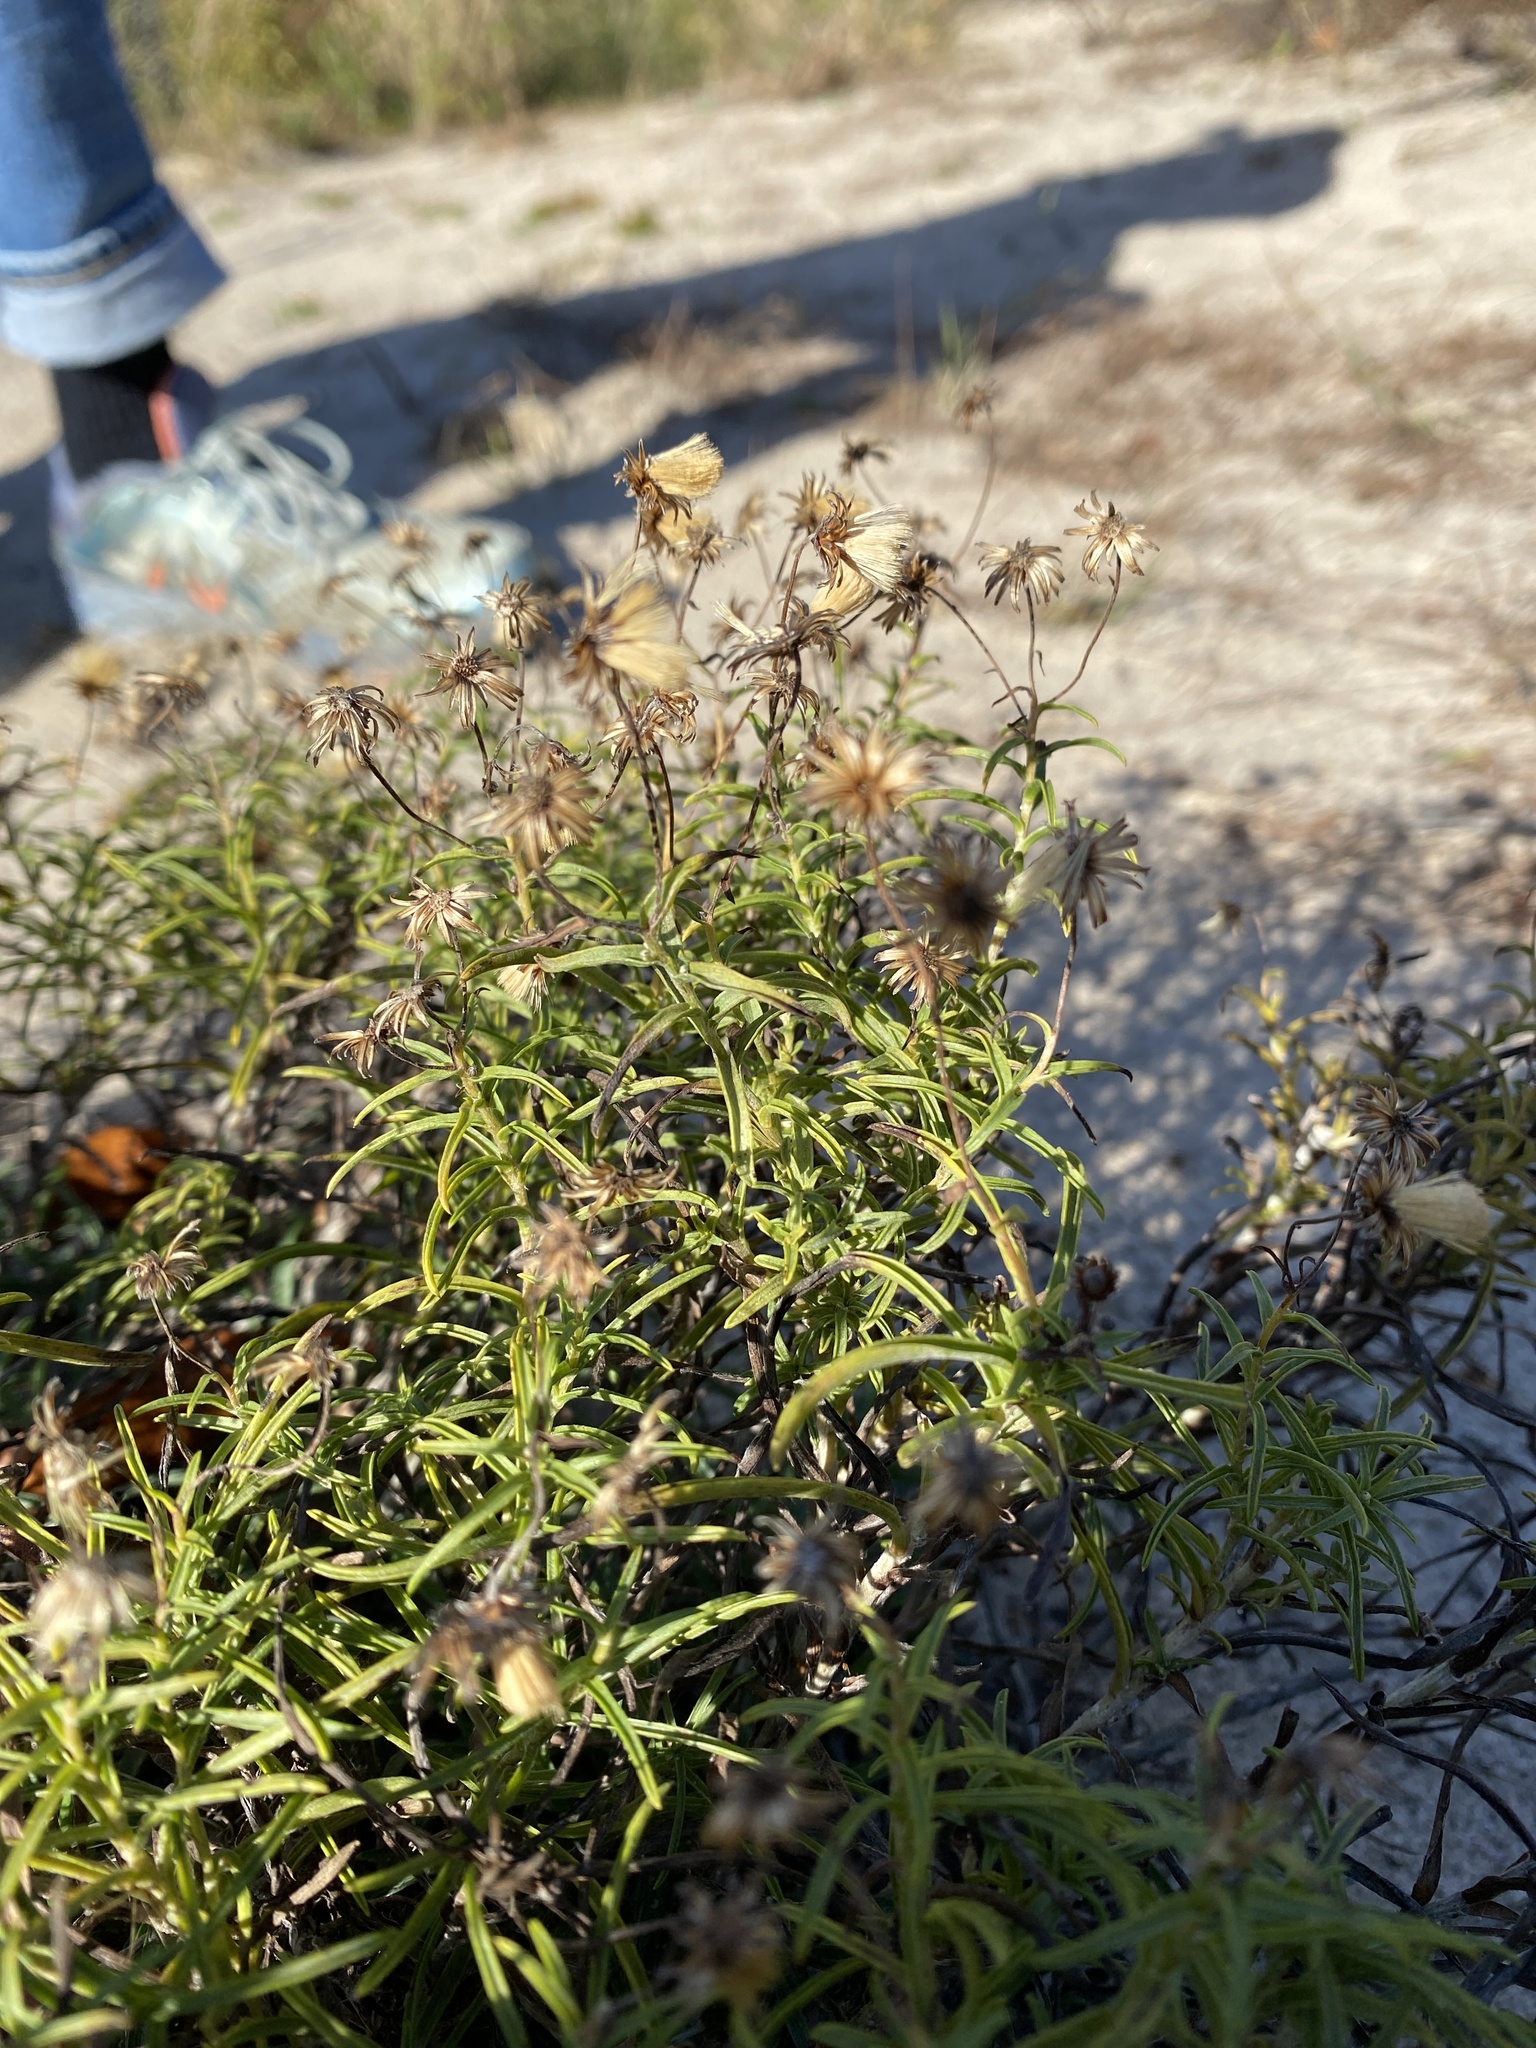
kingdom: Plantae
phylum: Tracheophyta
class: Magnoliopsida
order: Asterales
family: Asteraceae
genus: Pityopsis
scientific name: Pityopsis falcata
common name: Sickle-leaved goldenaster
